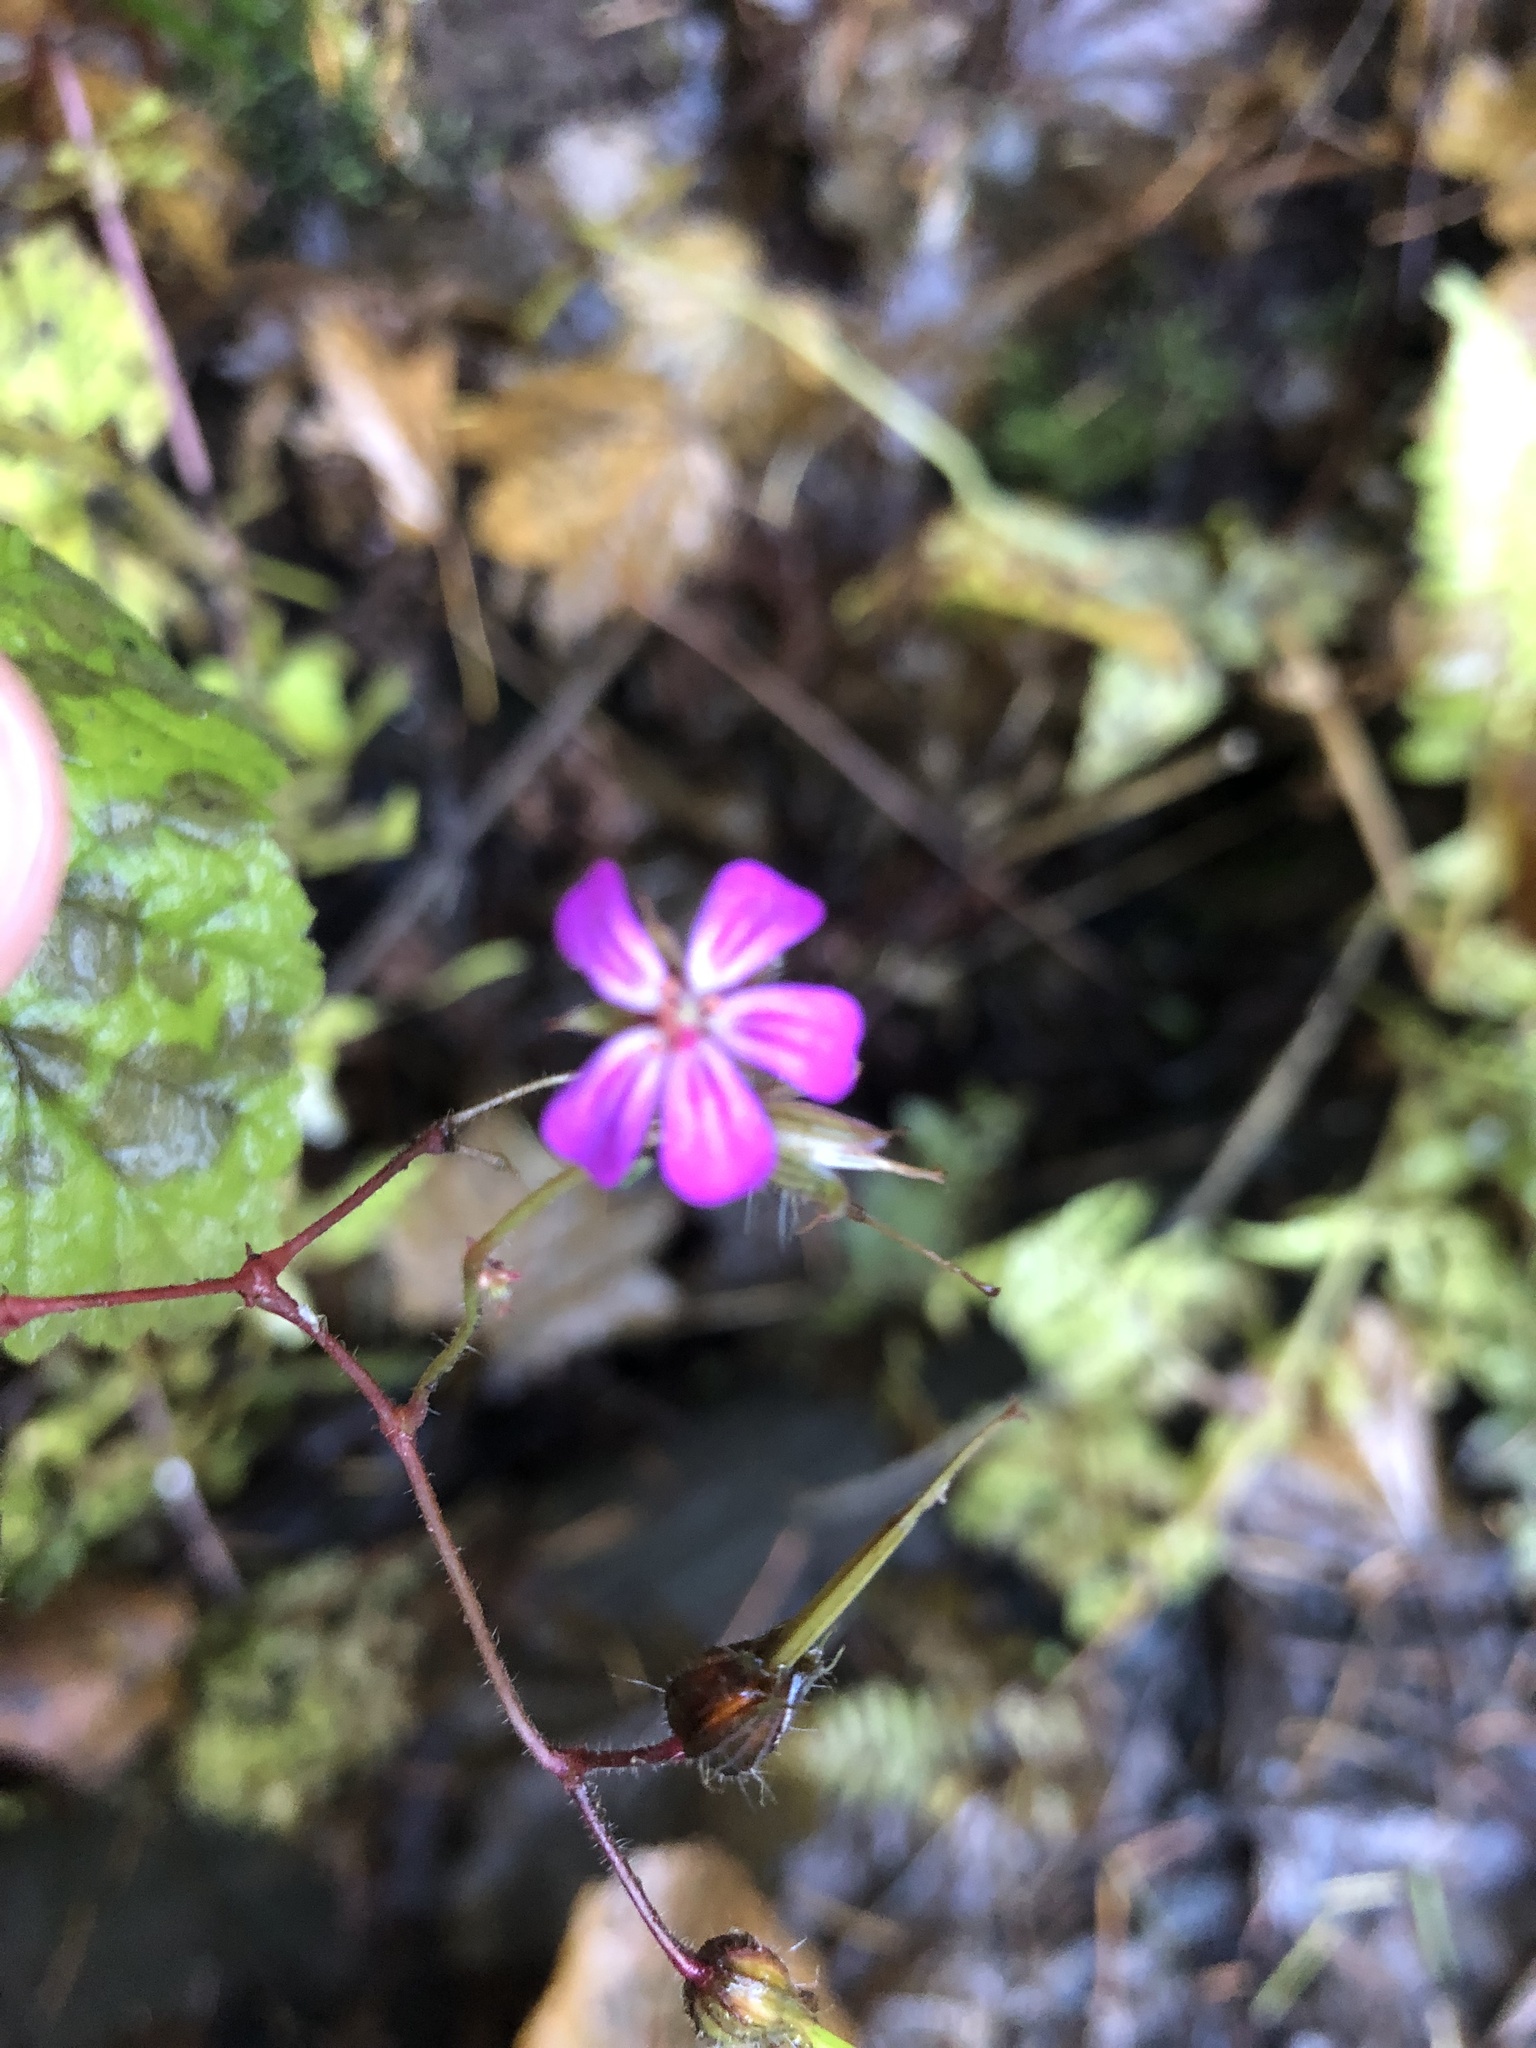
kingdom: Plantae
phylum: Tracheophyta
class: Magnoliopsida
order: Geraniales
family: Geraniaceae
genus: Geranium
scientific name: Geranium robertianum
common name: Herb-robert
